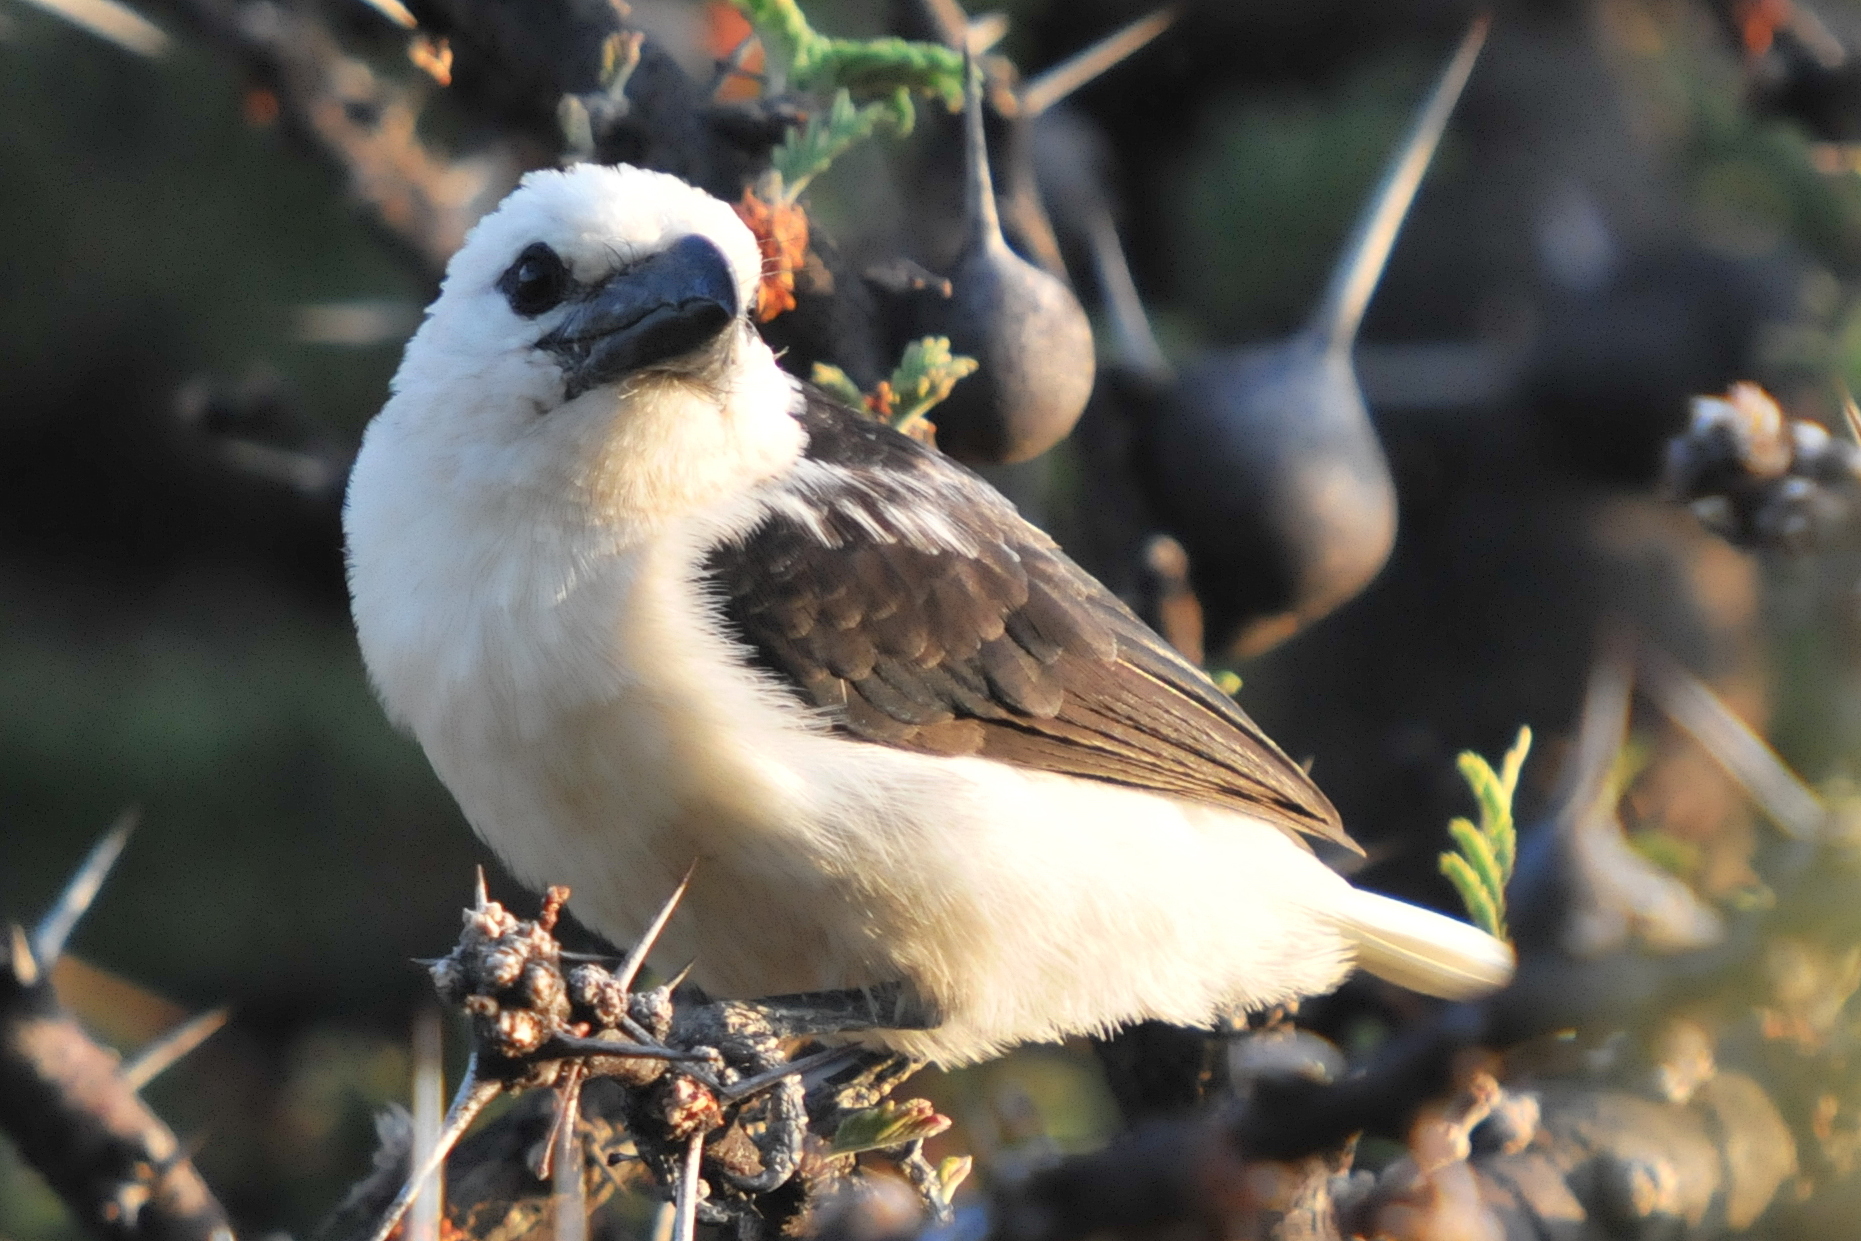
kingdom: Animalia
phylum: Chordata
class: Aves
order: Piciformes
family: Lybiidae
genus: Lybius
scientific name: Lybius leucocephalus
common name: White-headed barbet
